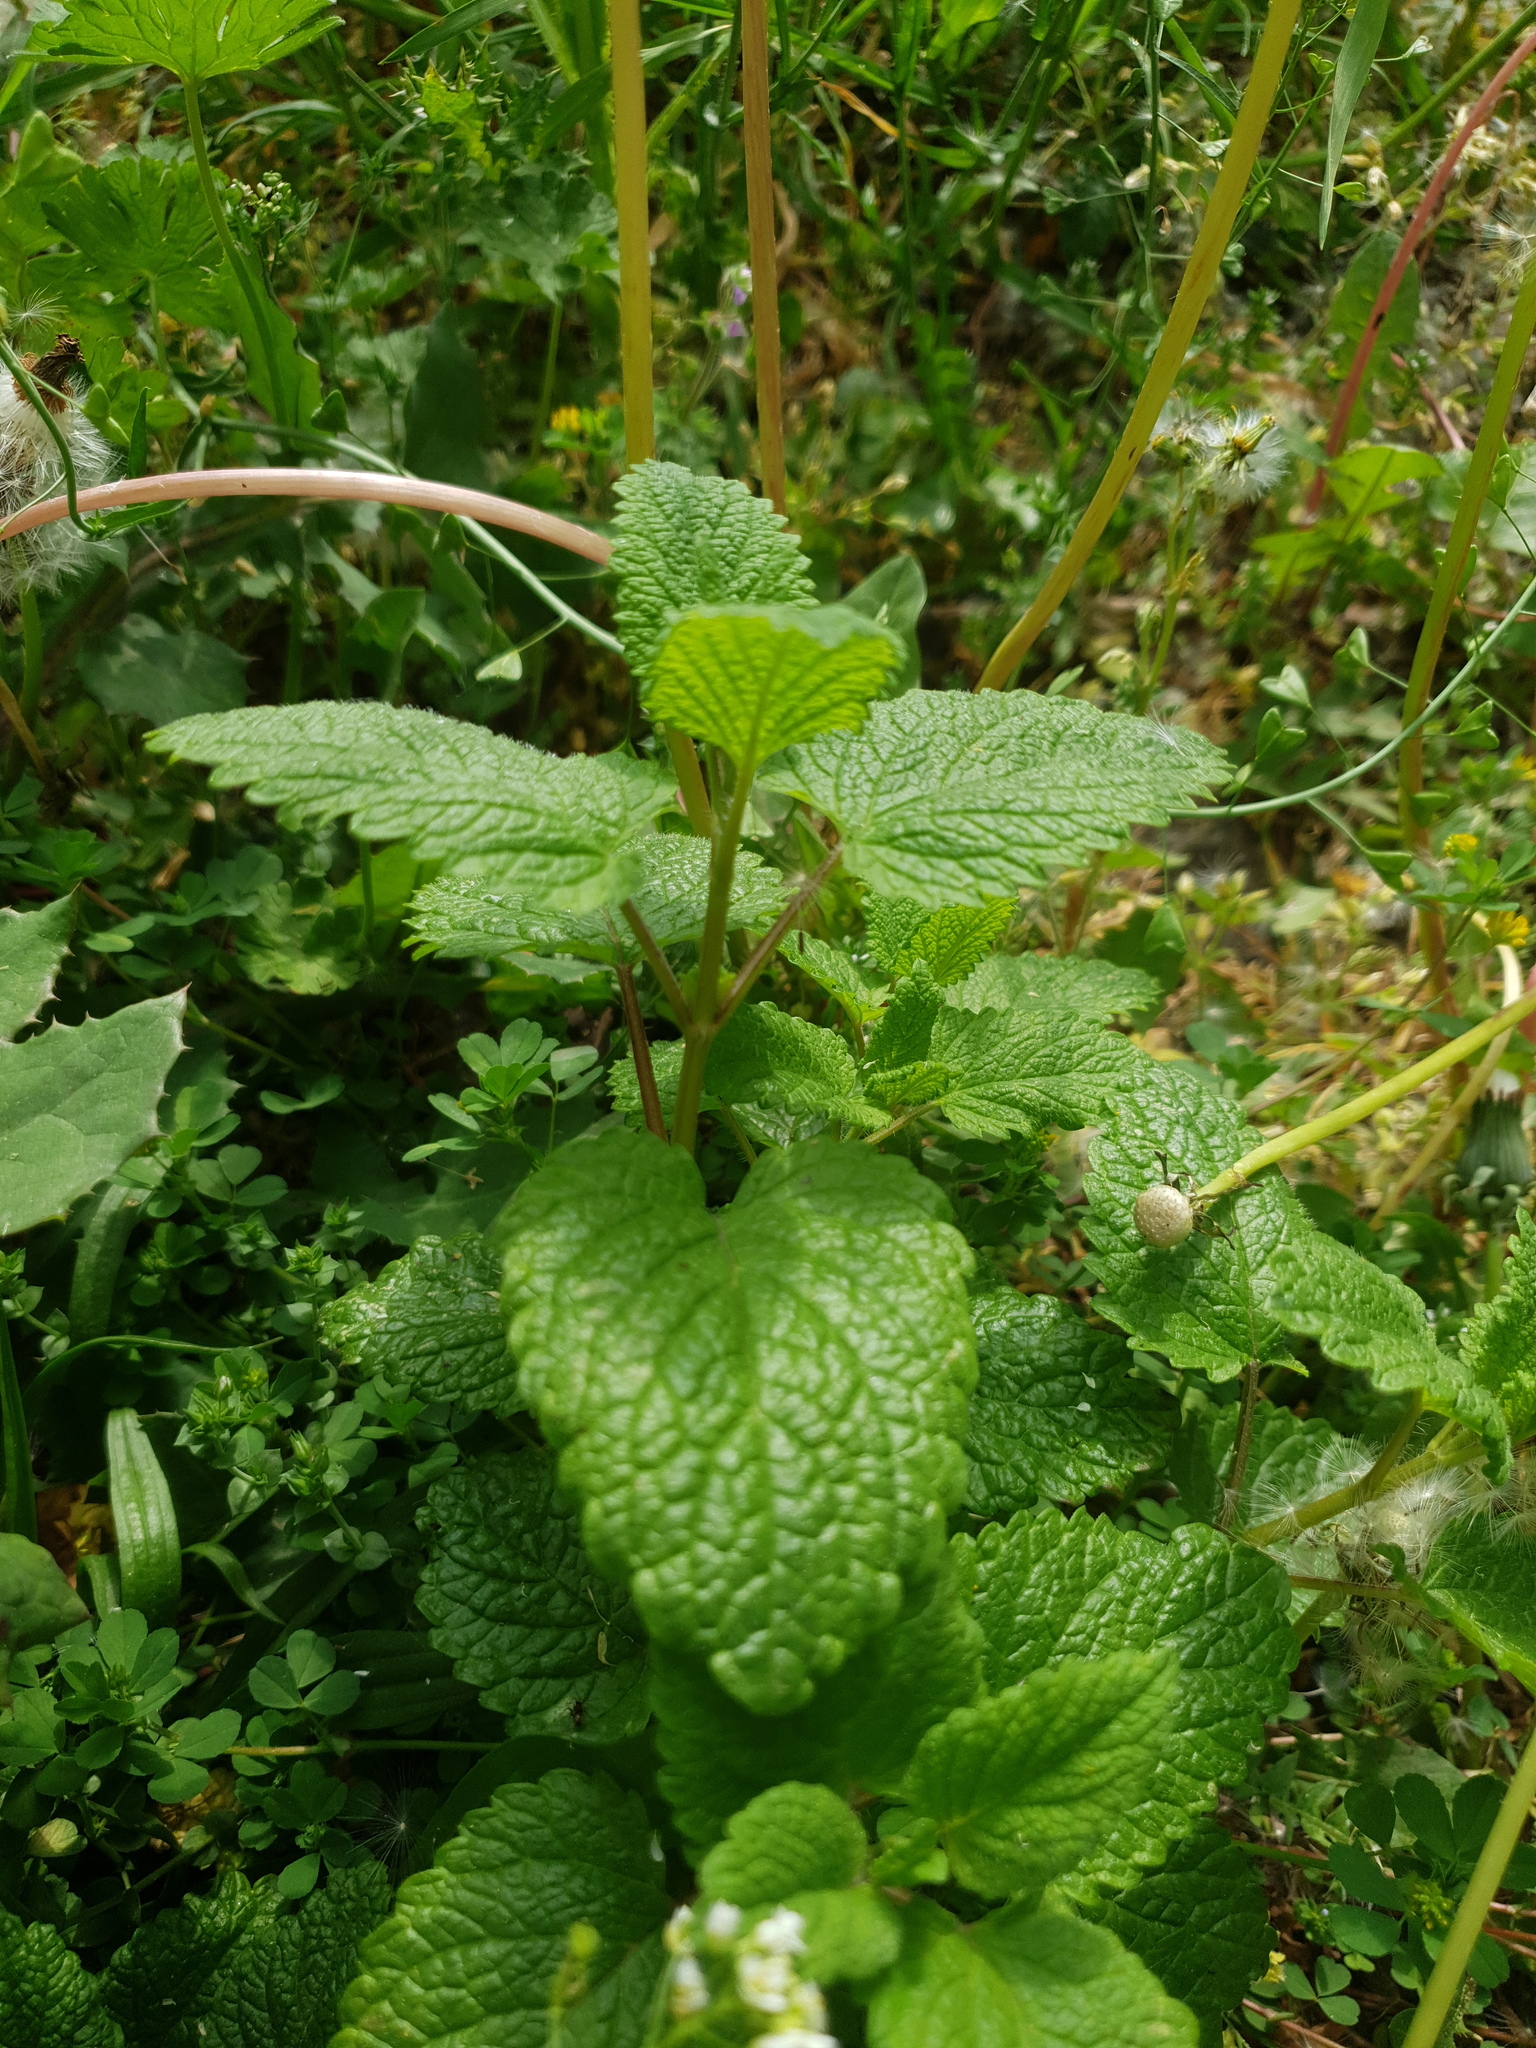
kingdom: Plantae
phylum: Tracheophyta
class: Magnoliopsida
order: Lamiales
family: Lamiaceae
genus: Melissa
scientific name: Melissa officinalis
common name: Balm
